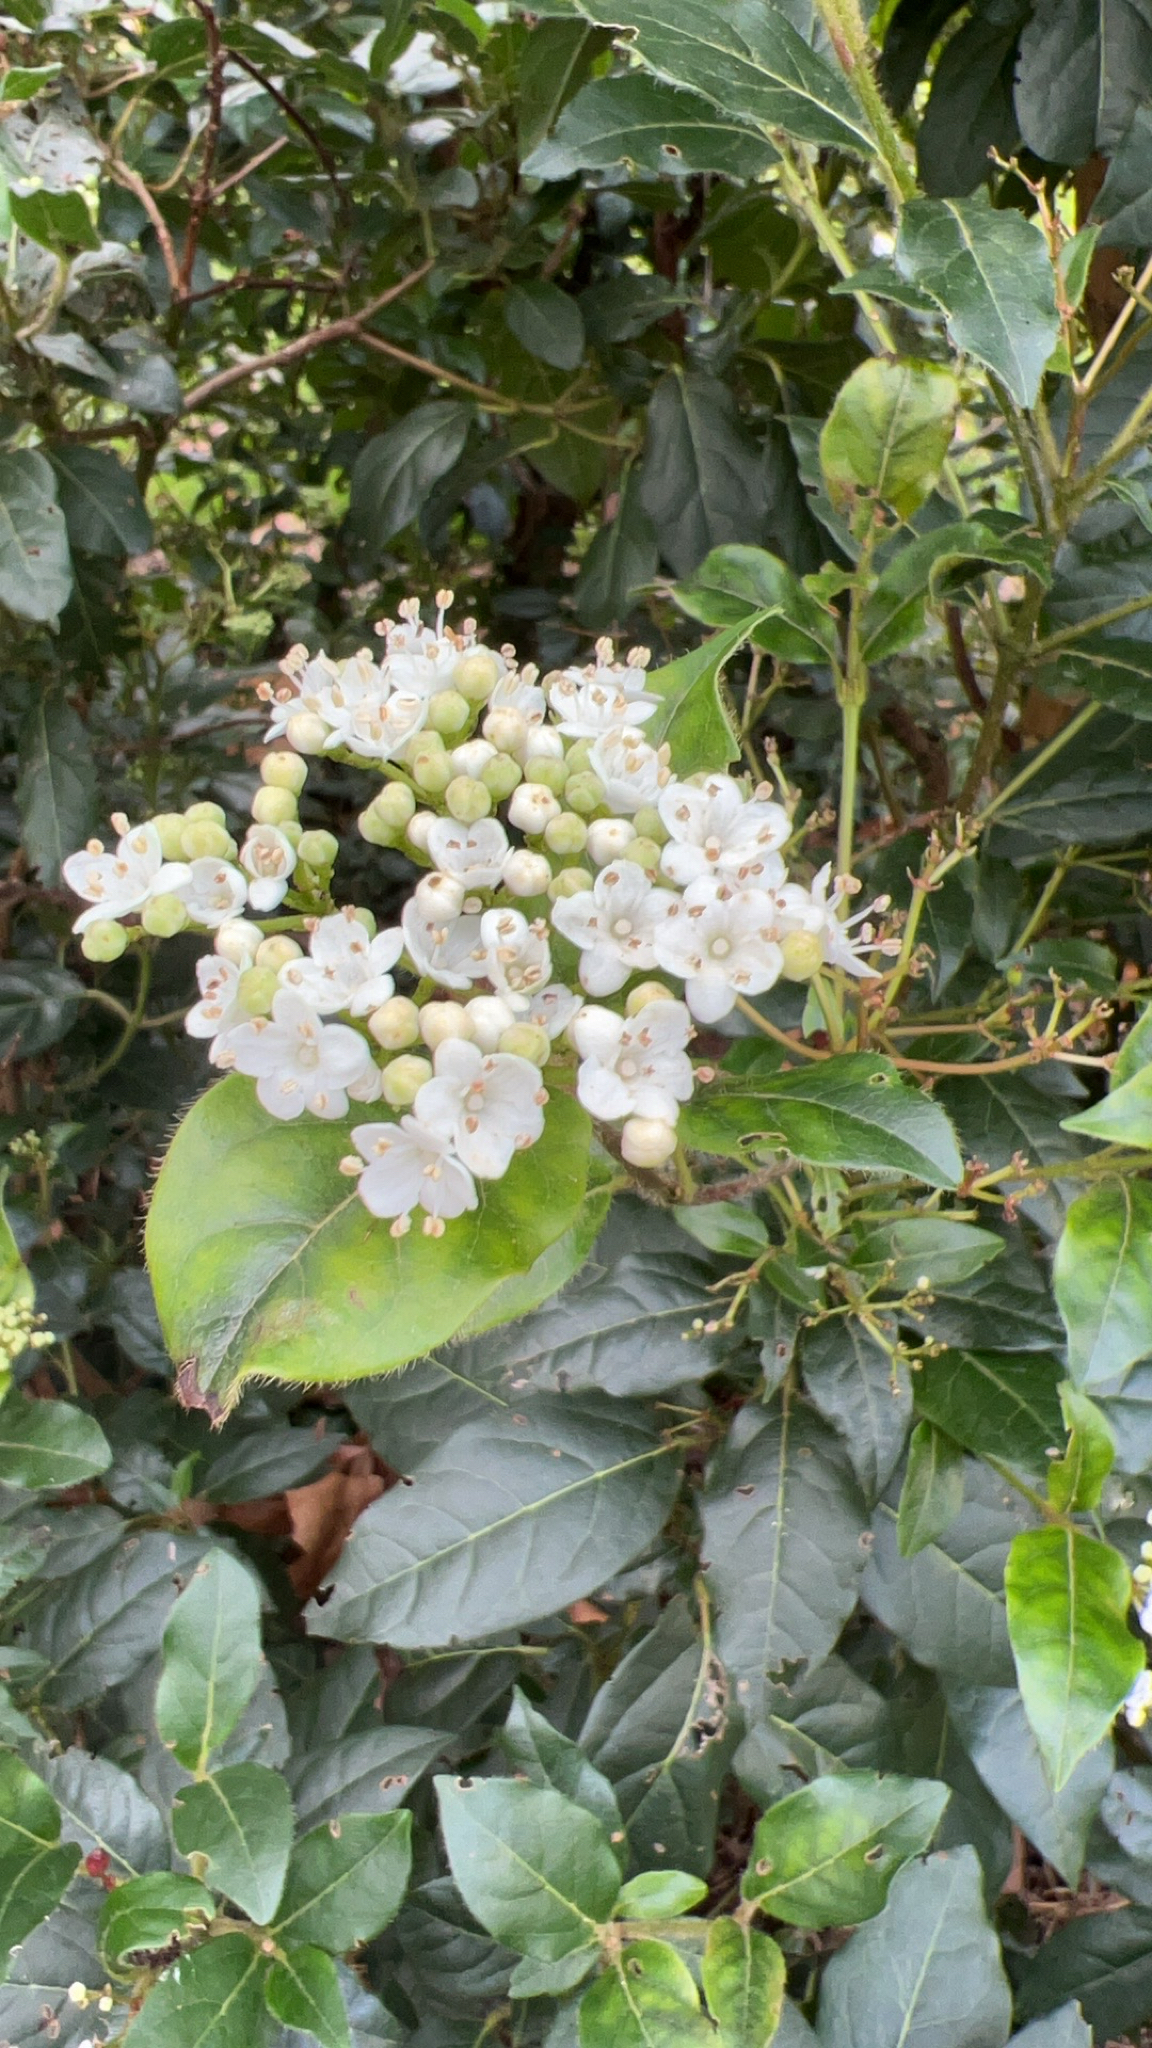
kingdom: Plantae
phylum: Tracheophyta
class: Magnoliopsida
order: Dipsacales
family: Viburnaceae
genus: Viburnum
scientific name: Viburnum tinus
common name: Laurustinus
